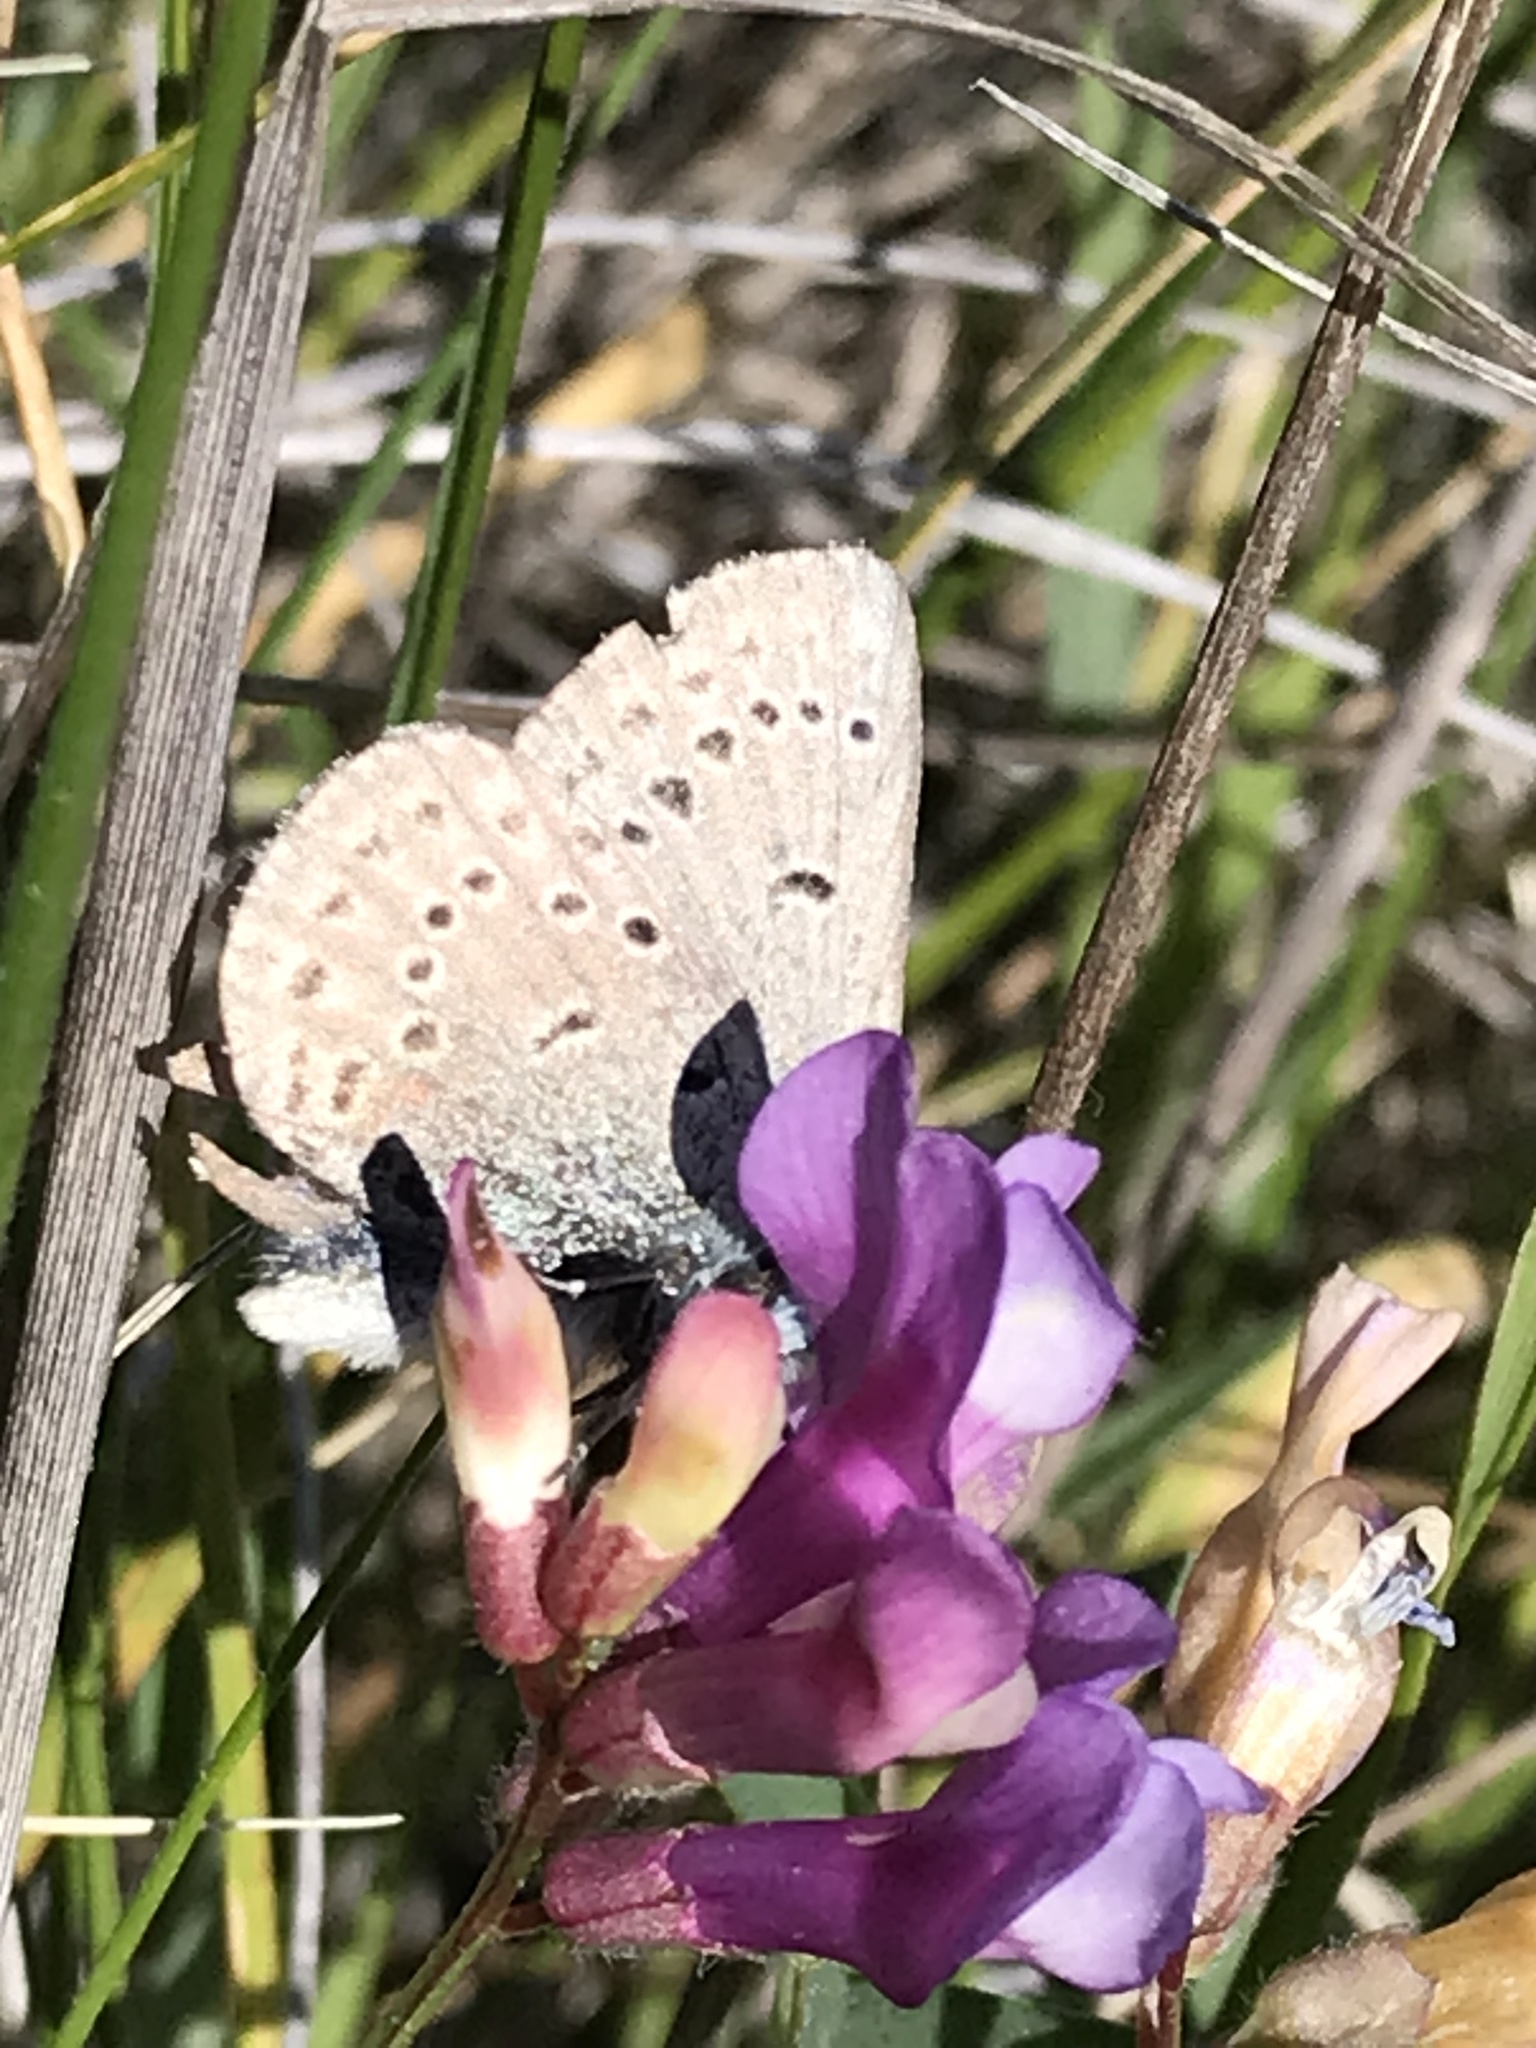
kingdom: Animalia
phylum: Arthropoda
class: Insecta
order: Lepidoptera
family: Lycaenidae
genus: Icaricia
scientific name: Icaricia icarioides
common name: Boisduval's blue
